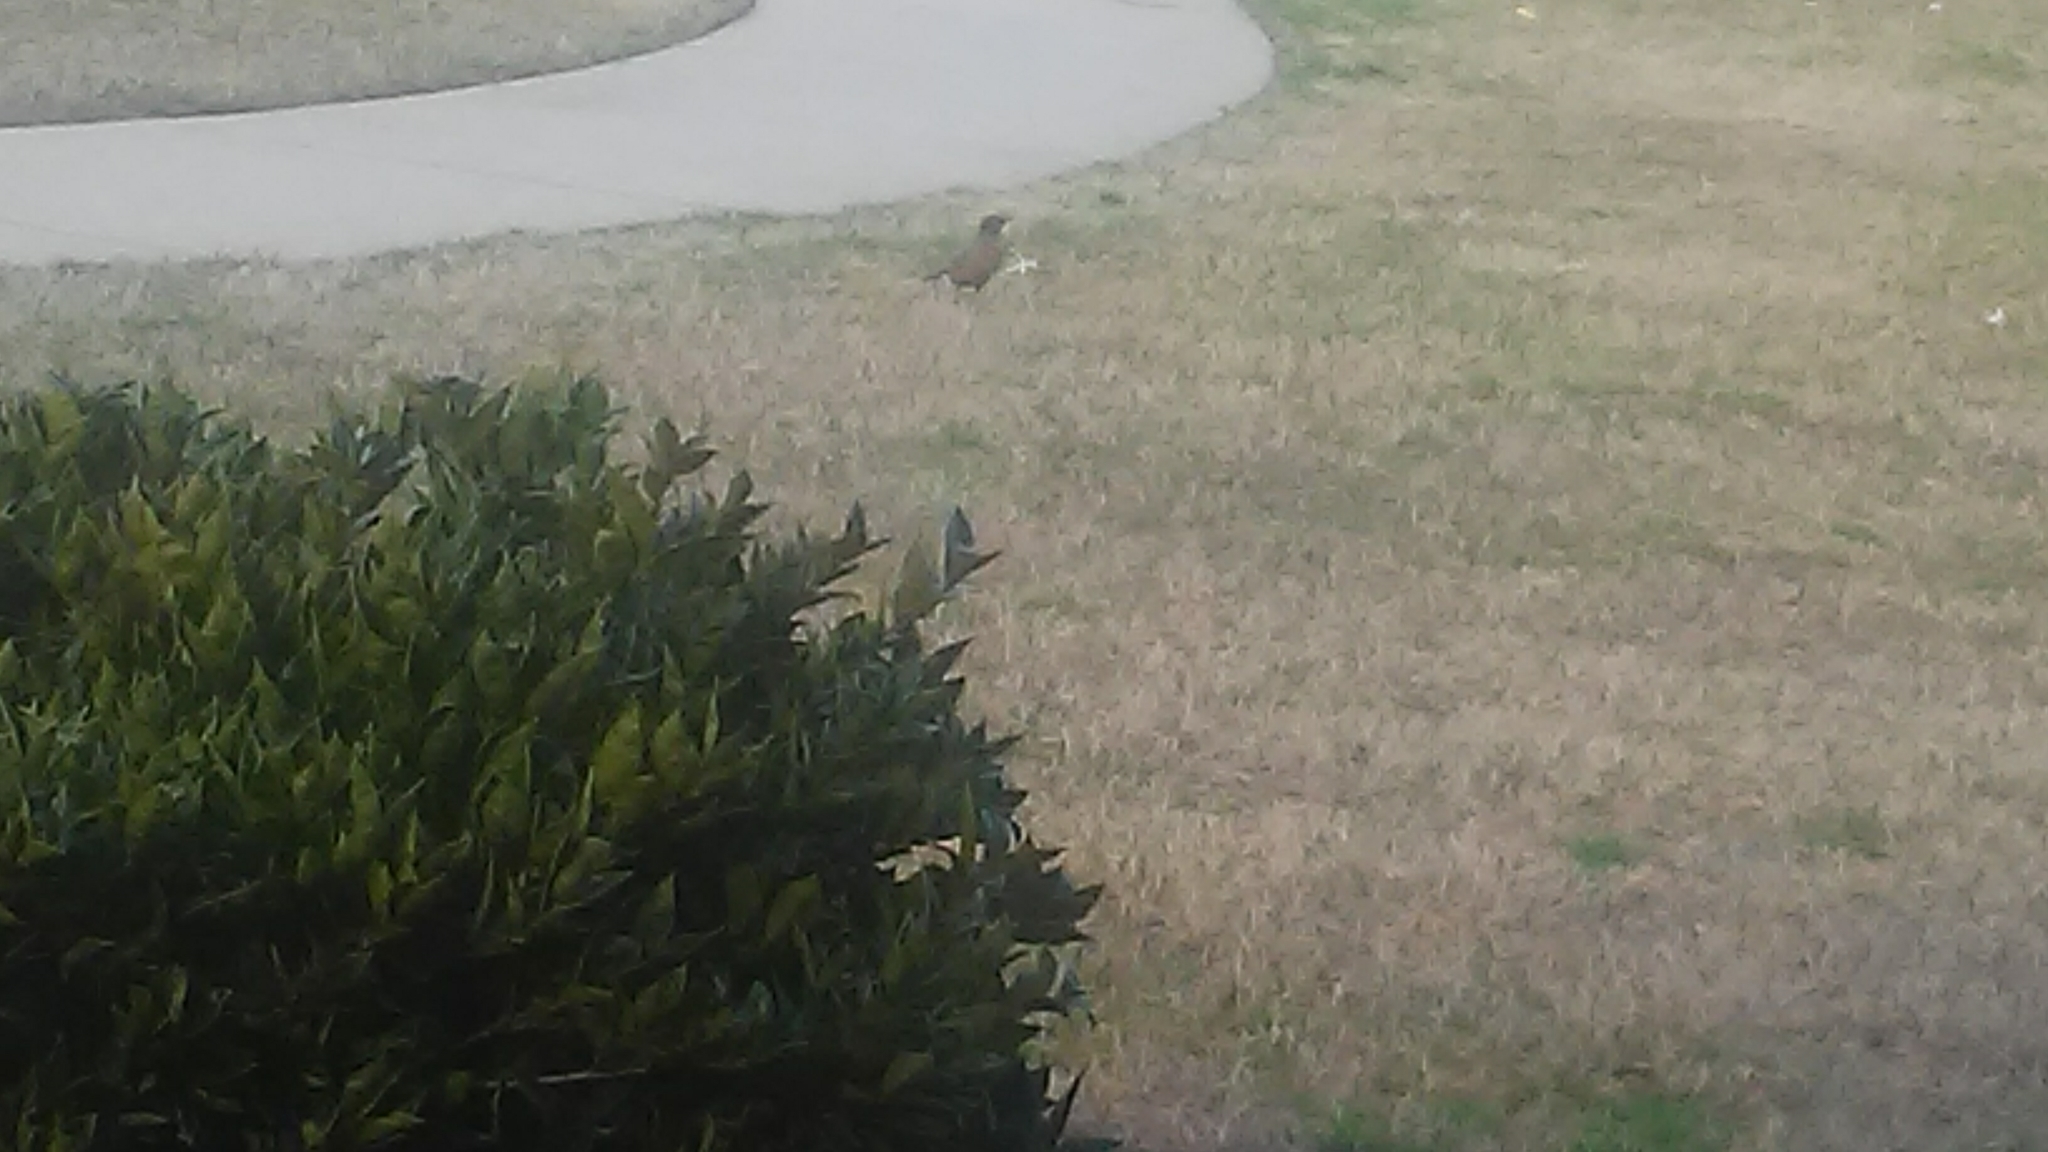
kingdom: Animalia
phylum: Chordata
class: Aves
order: Passeriformes
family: Turdidae
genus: Turdus
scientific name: Turdus migratorius
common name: American robin
